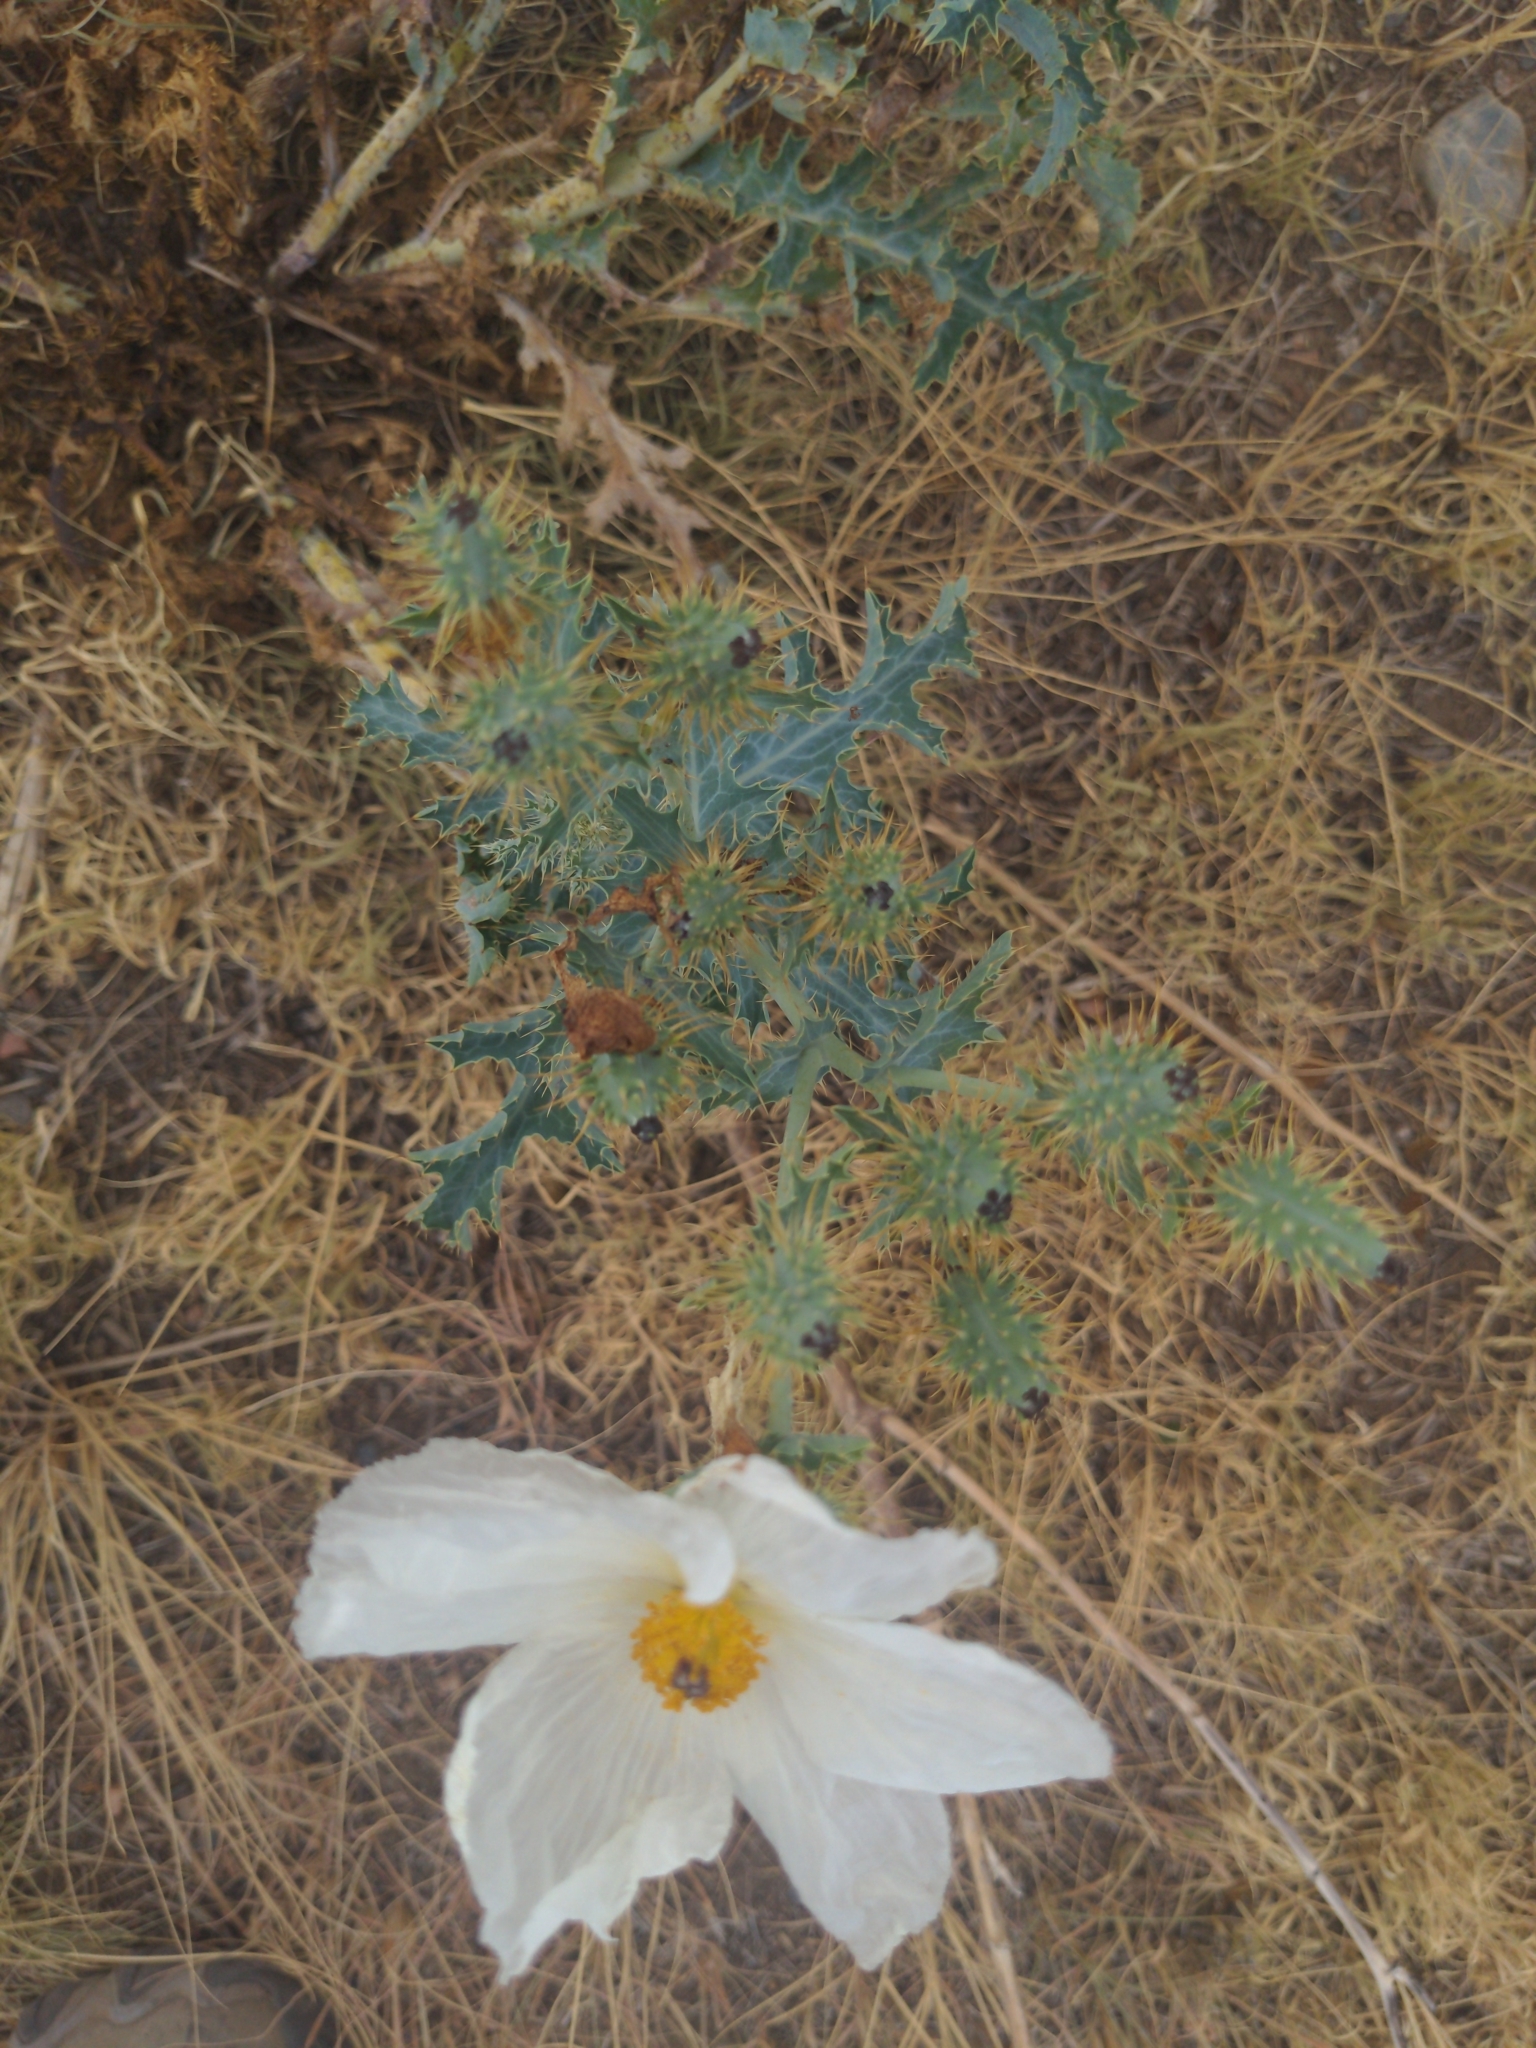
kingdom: Plantae
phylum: Tracheophyta
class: Magnoliopsida
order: Ranunculales
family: Papaveraceae
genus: Argemone
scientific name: Argemone polyanthemos
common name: Plains prickly-poppy
